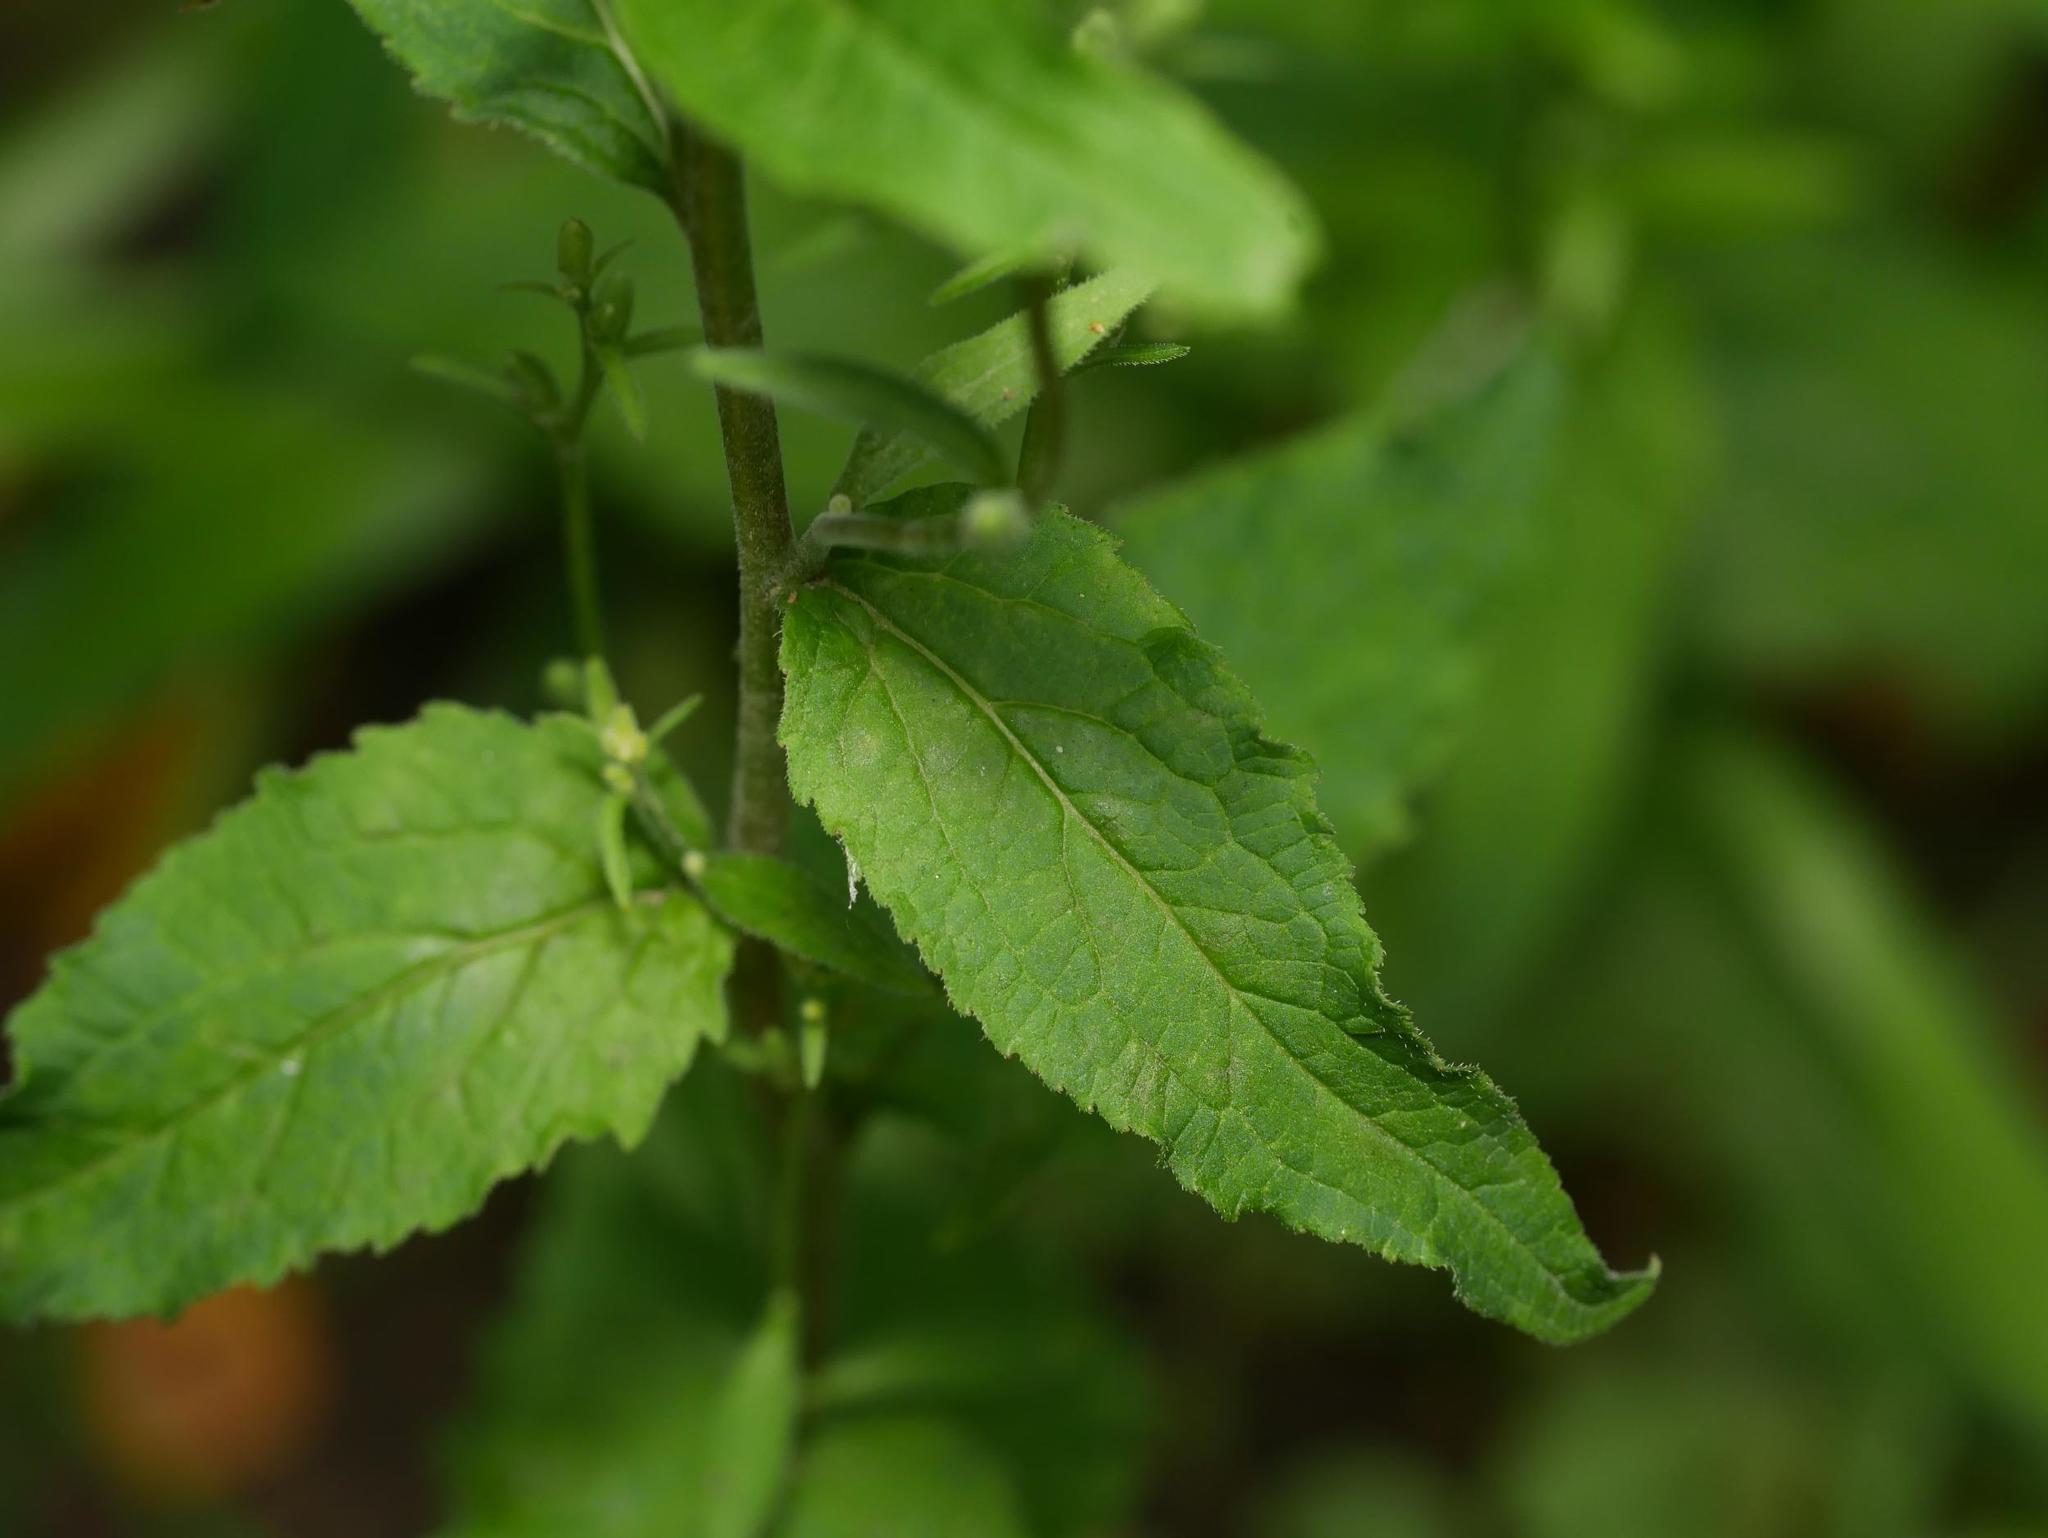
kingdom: Plantae
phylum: Tracheophyta
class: Magnoliopsida
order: Asterales
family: Campanulaceae
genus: Campanula
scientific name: Campanula rapunculoides
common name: Creeping bellflower
